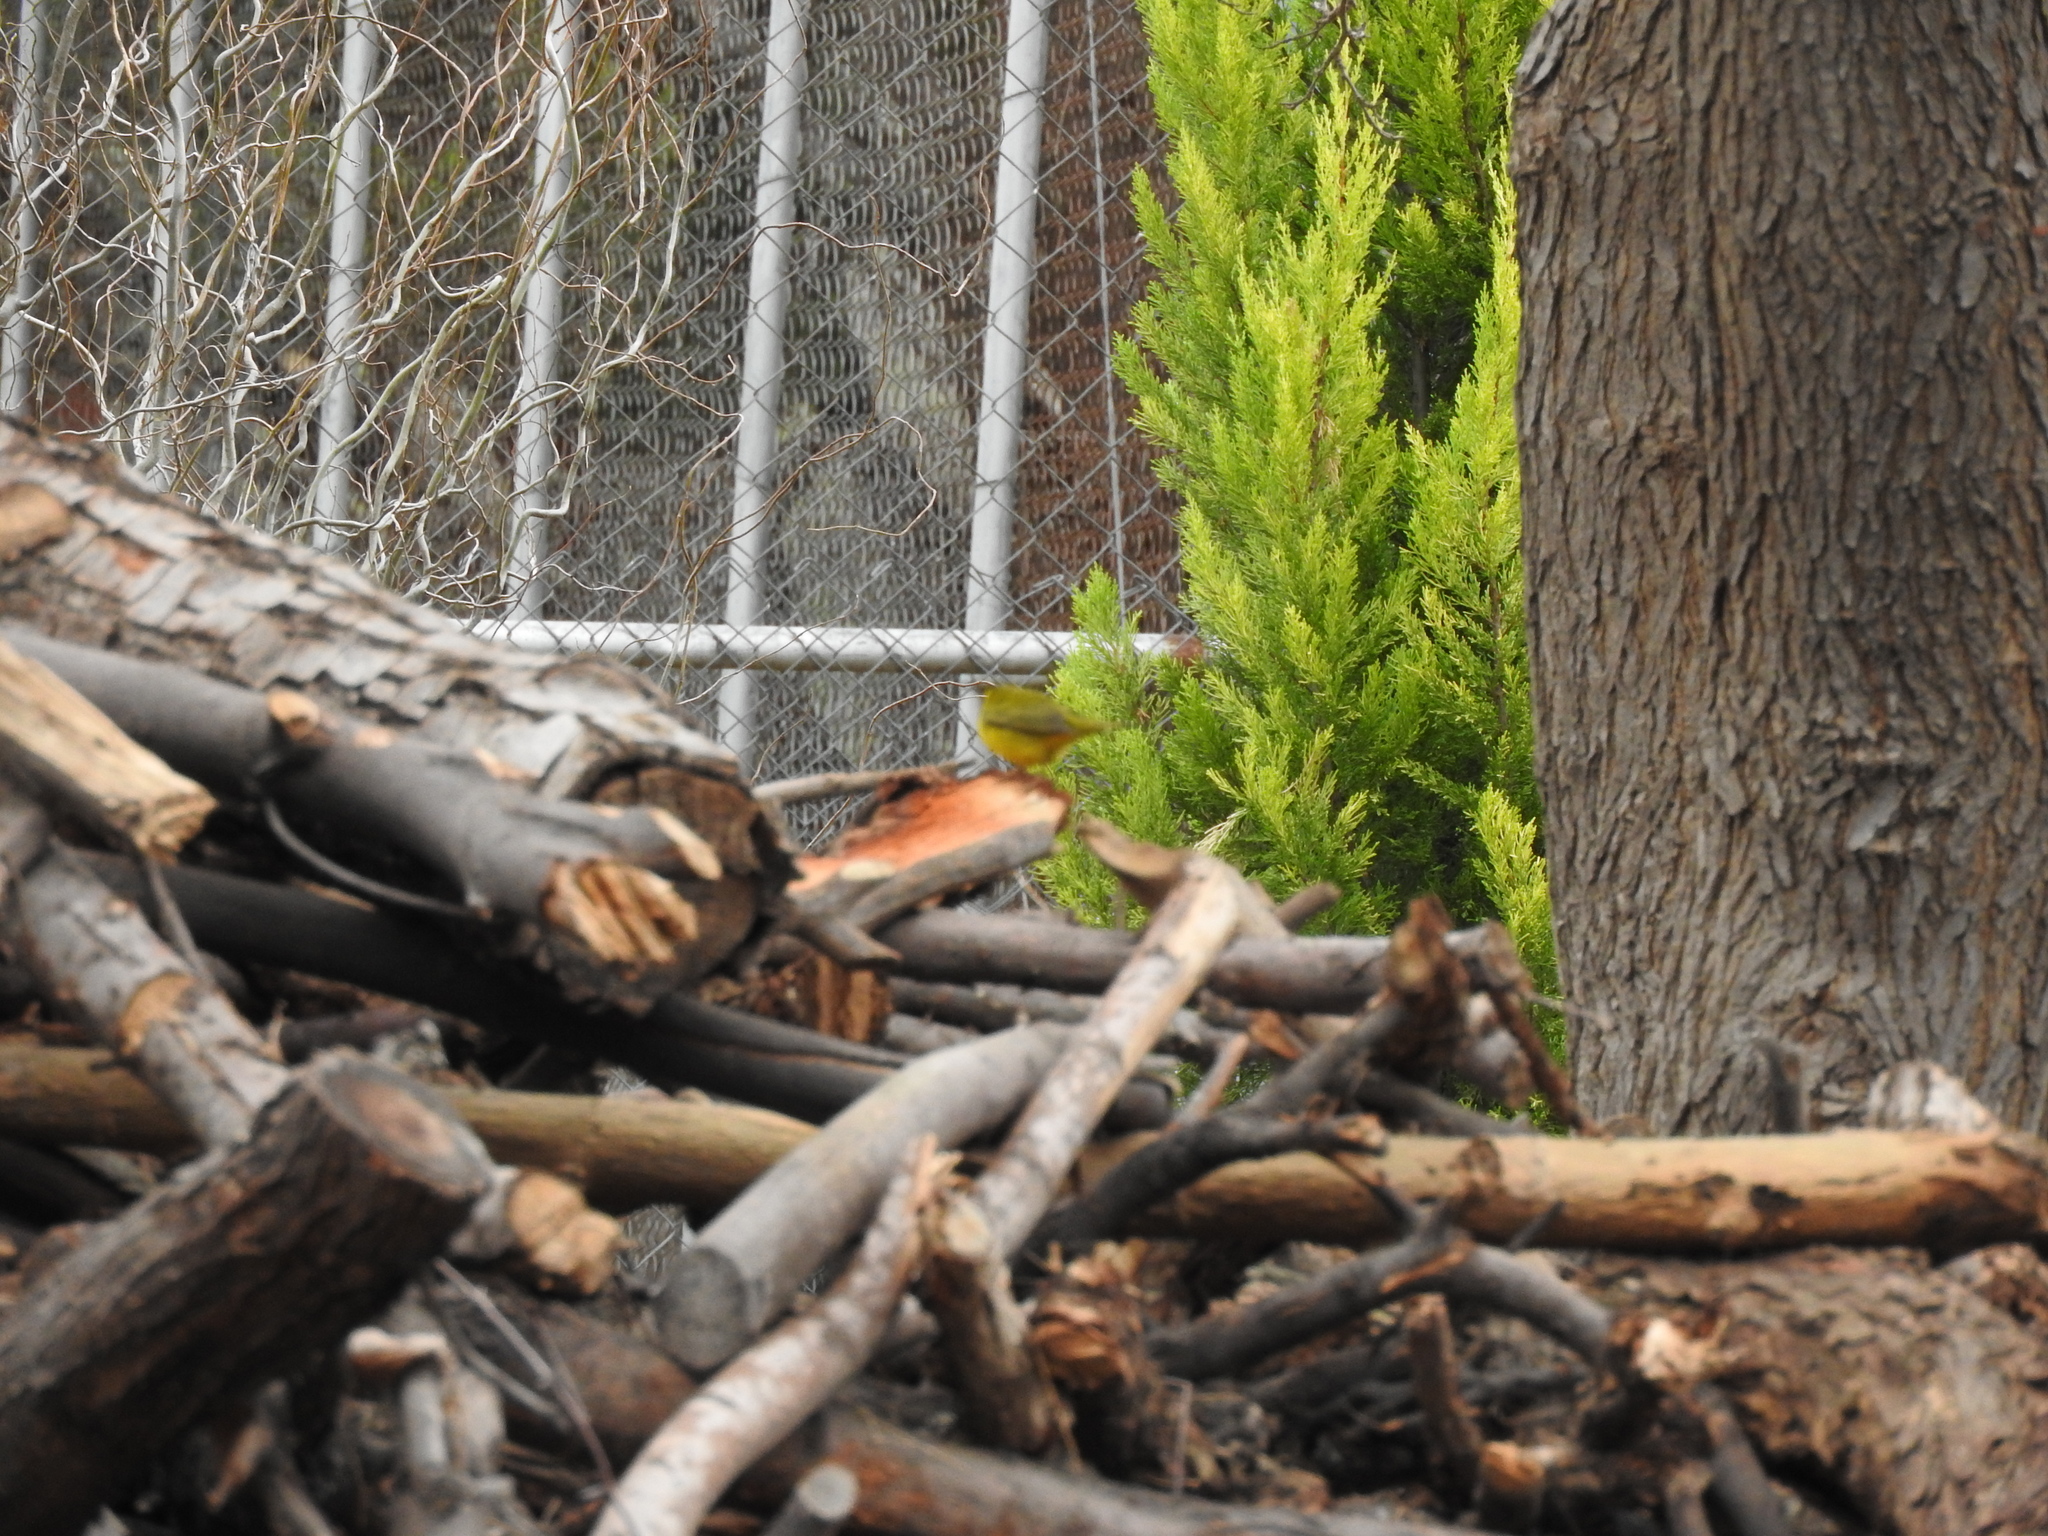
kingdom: Animalia
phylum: Chordata
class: Aves
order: Passeriformes
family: Parulidae
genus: Cardellina
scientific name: Cardellina pusilla
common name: Wilson's warbler
